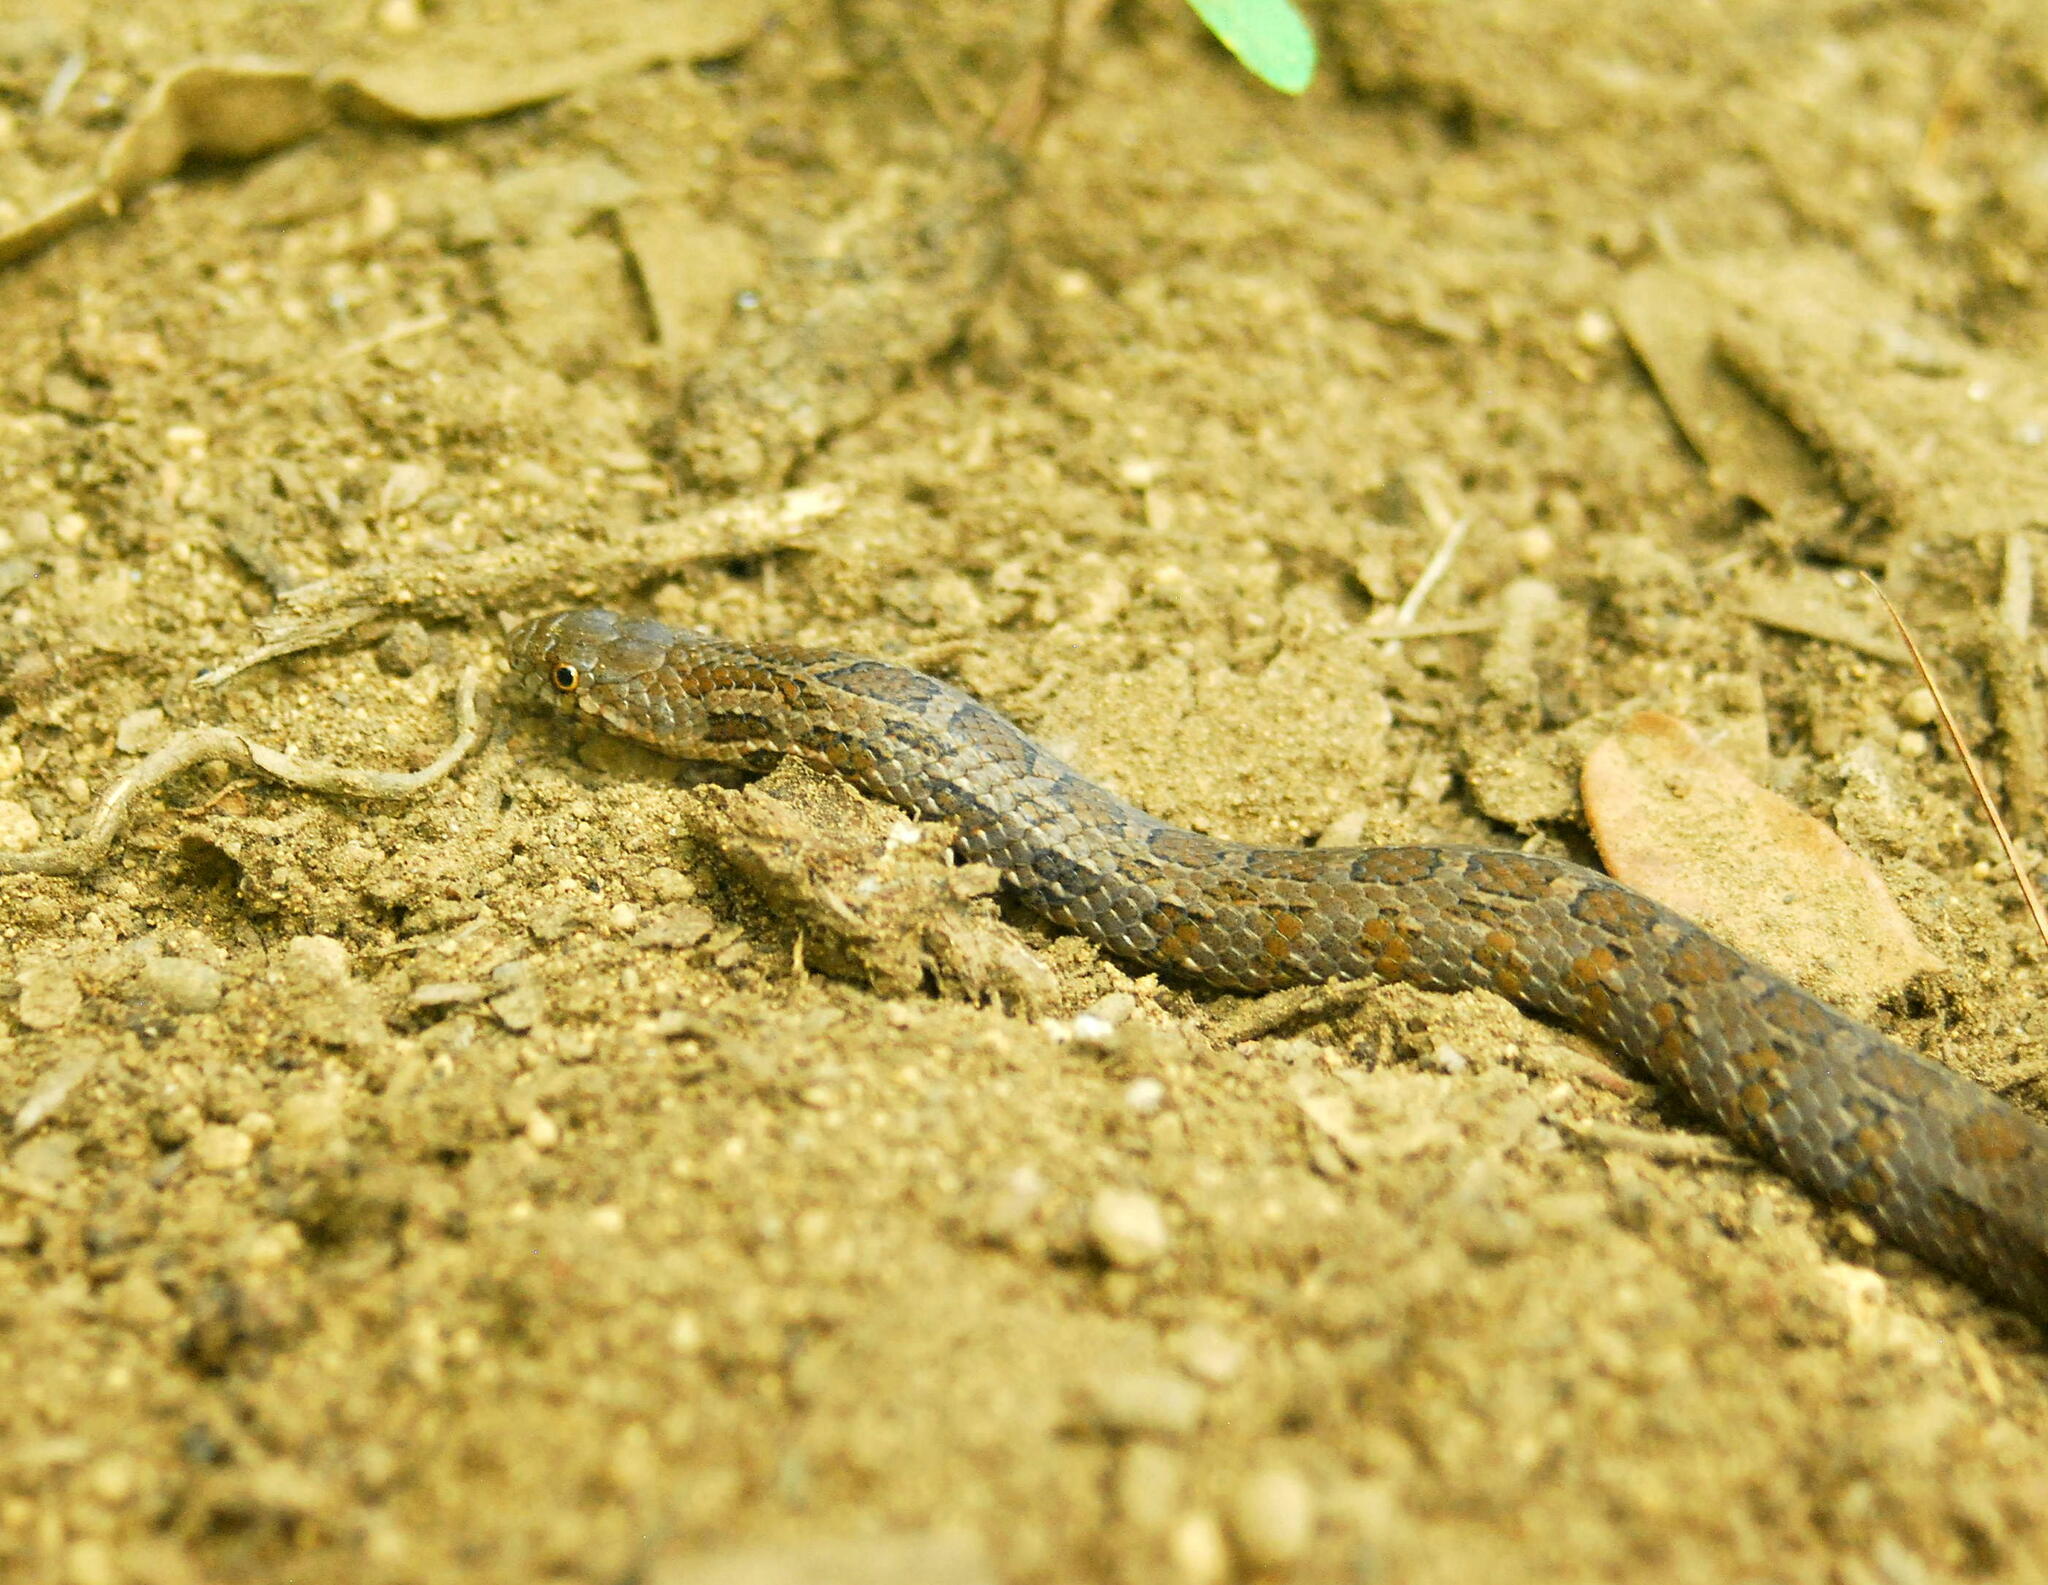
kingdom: Animalia
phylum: Chordata
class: Squamata
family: Colubridae
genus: Conopsis
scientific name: Conopsis biserialis
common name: Two-lined mexican earth snake
